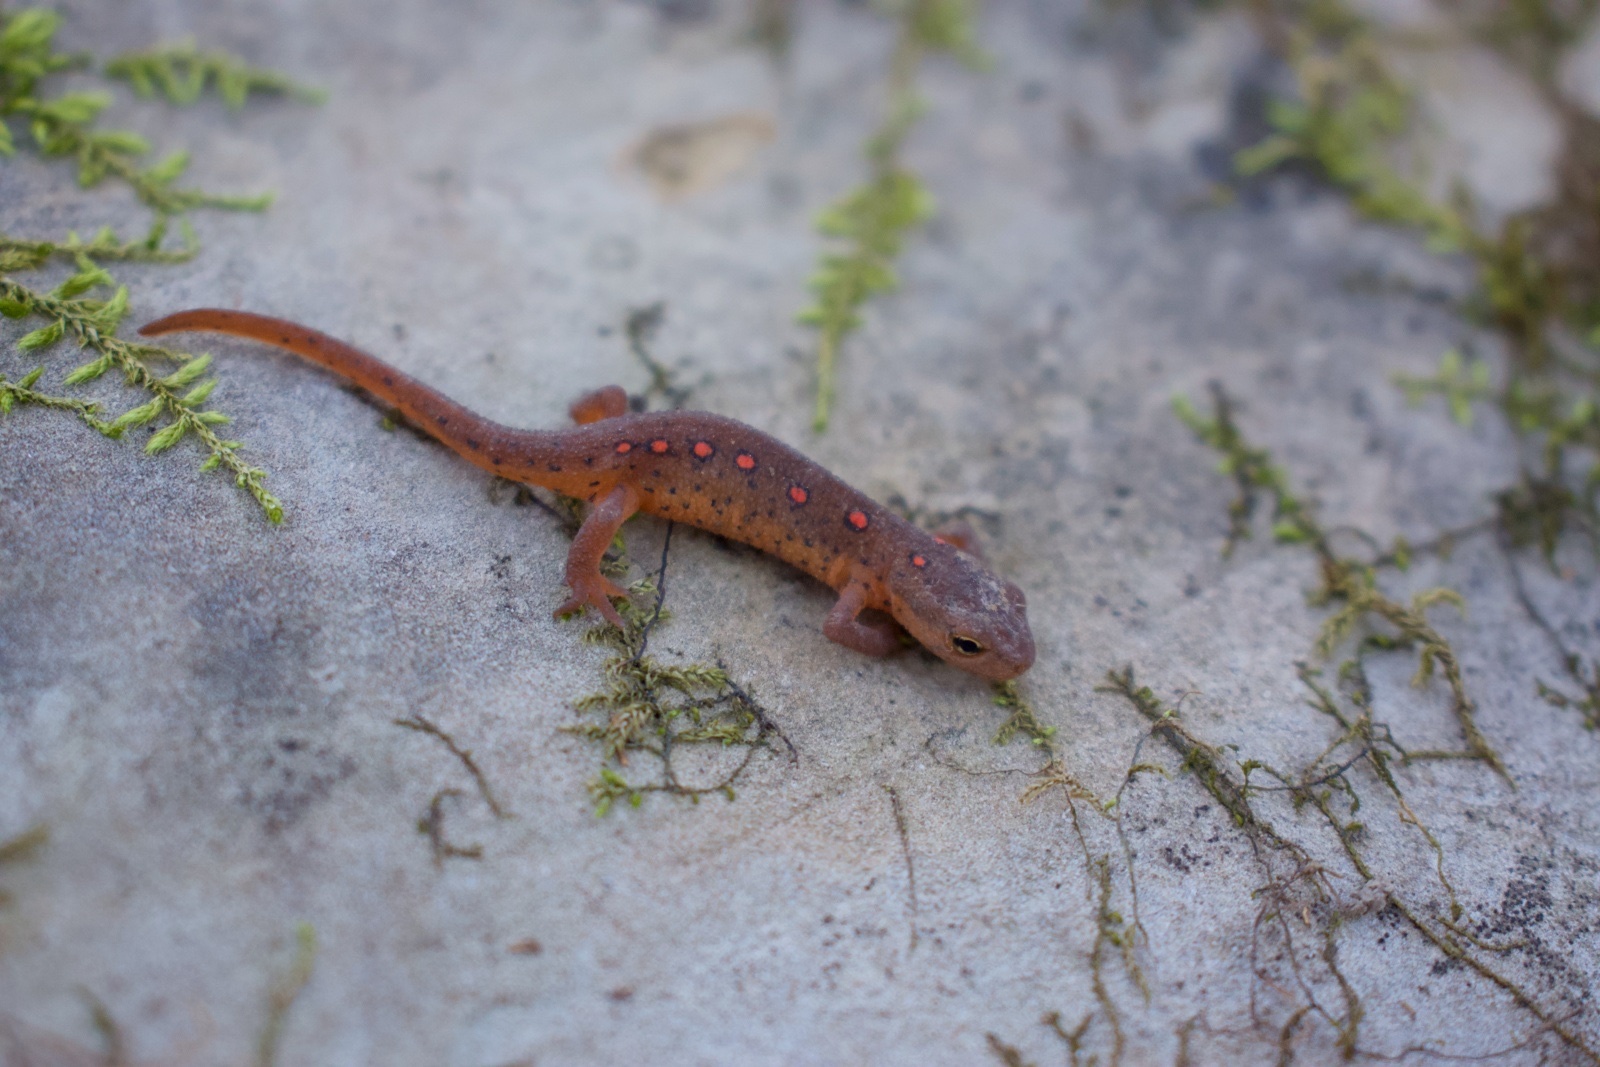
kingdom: Animalia
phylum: Chordata
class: Amphibia
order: Caudata
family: Salamandridae
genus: Notophthalmus
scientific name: Notophthalmus viridescens
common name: Eastern newt
